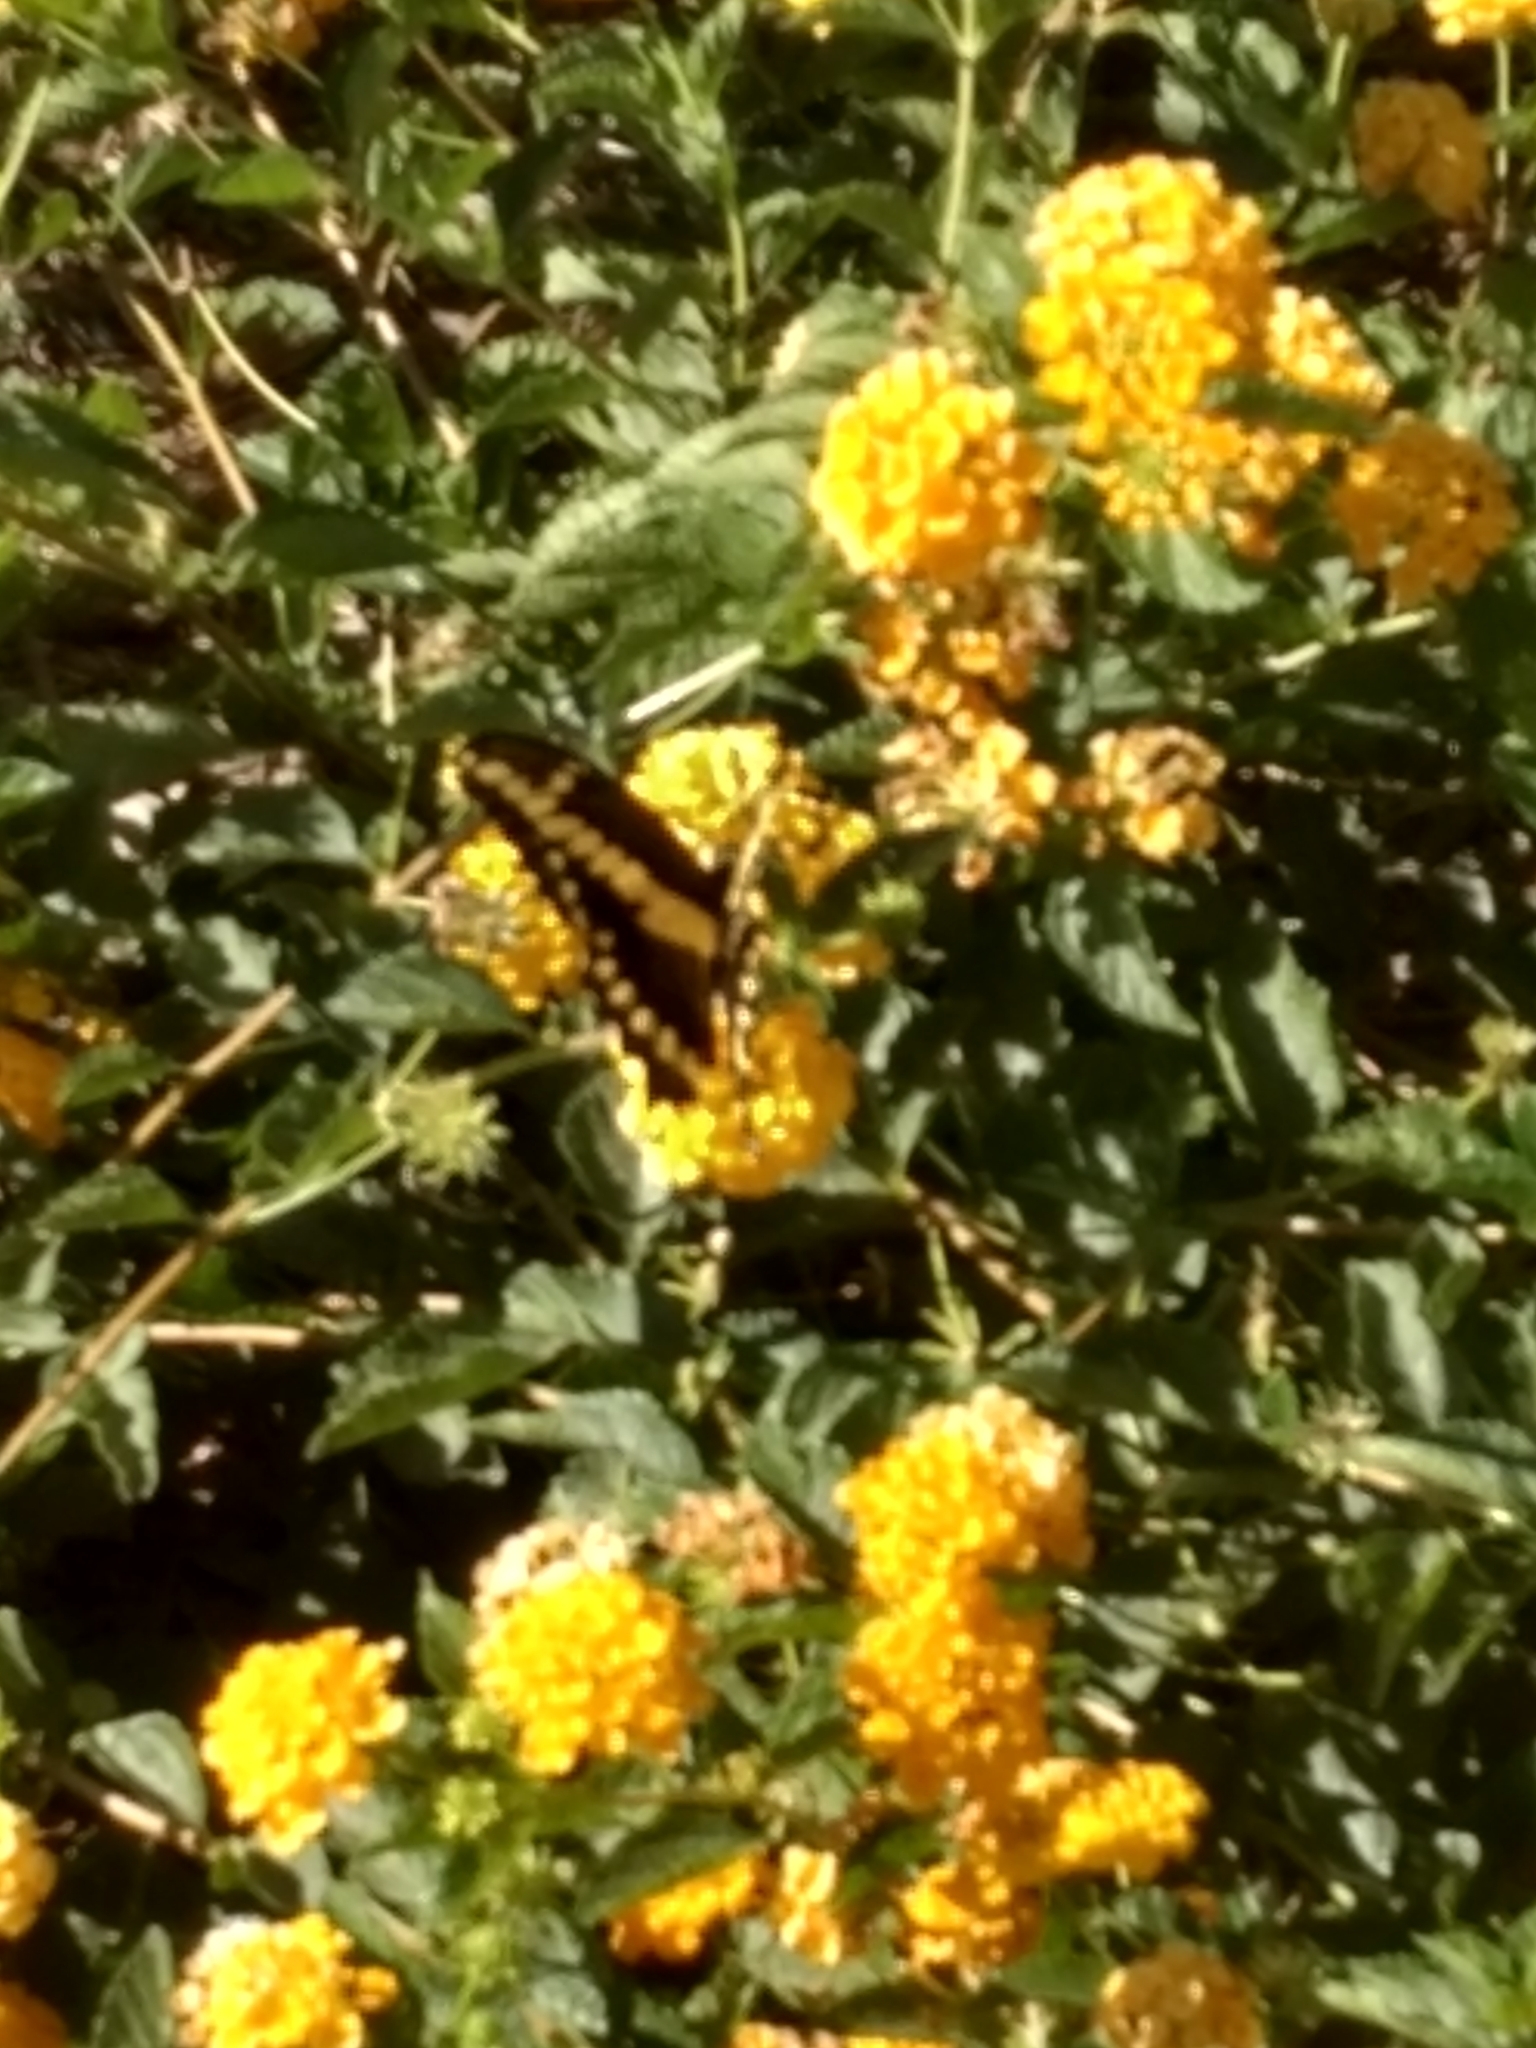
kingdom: Animalia
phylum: Arthropoda
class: Insecta
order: Lepidoptera
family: Papilionidae
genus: Papilio
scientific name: Papilio rumiko
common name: Western giant swallowtail
